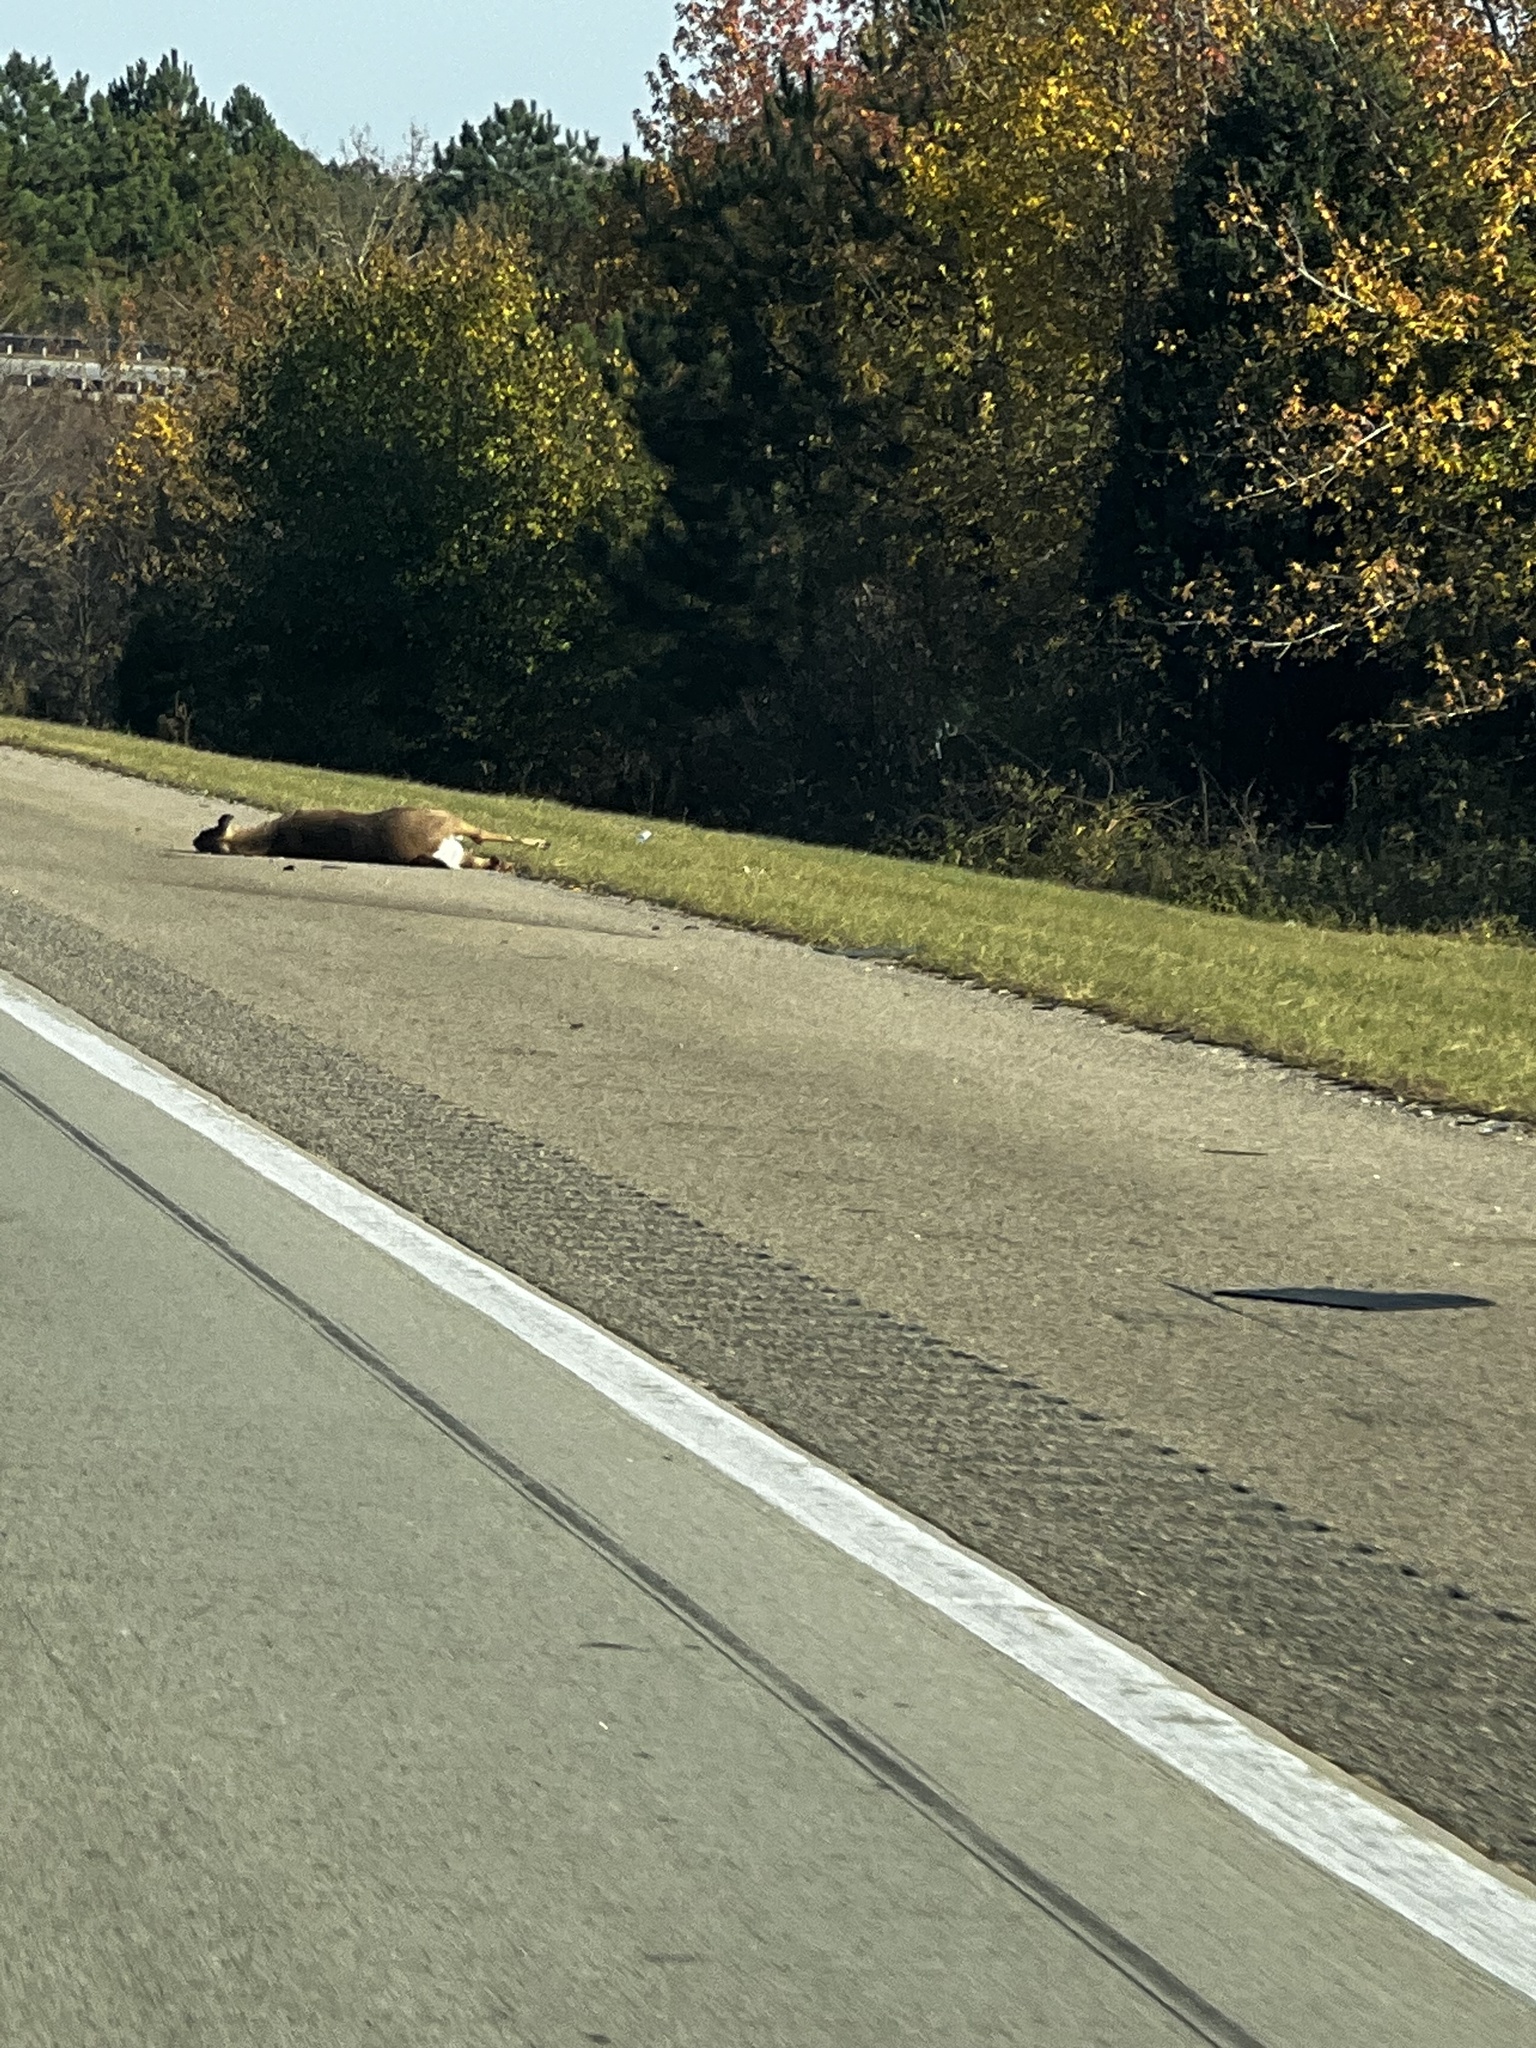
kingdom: Animalia
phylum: Chordata
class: Mammalia
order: Artiodactyla
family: Cervidae
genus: Odocoileus
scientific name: Odocoileus virginianus
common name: White-tailed deer
